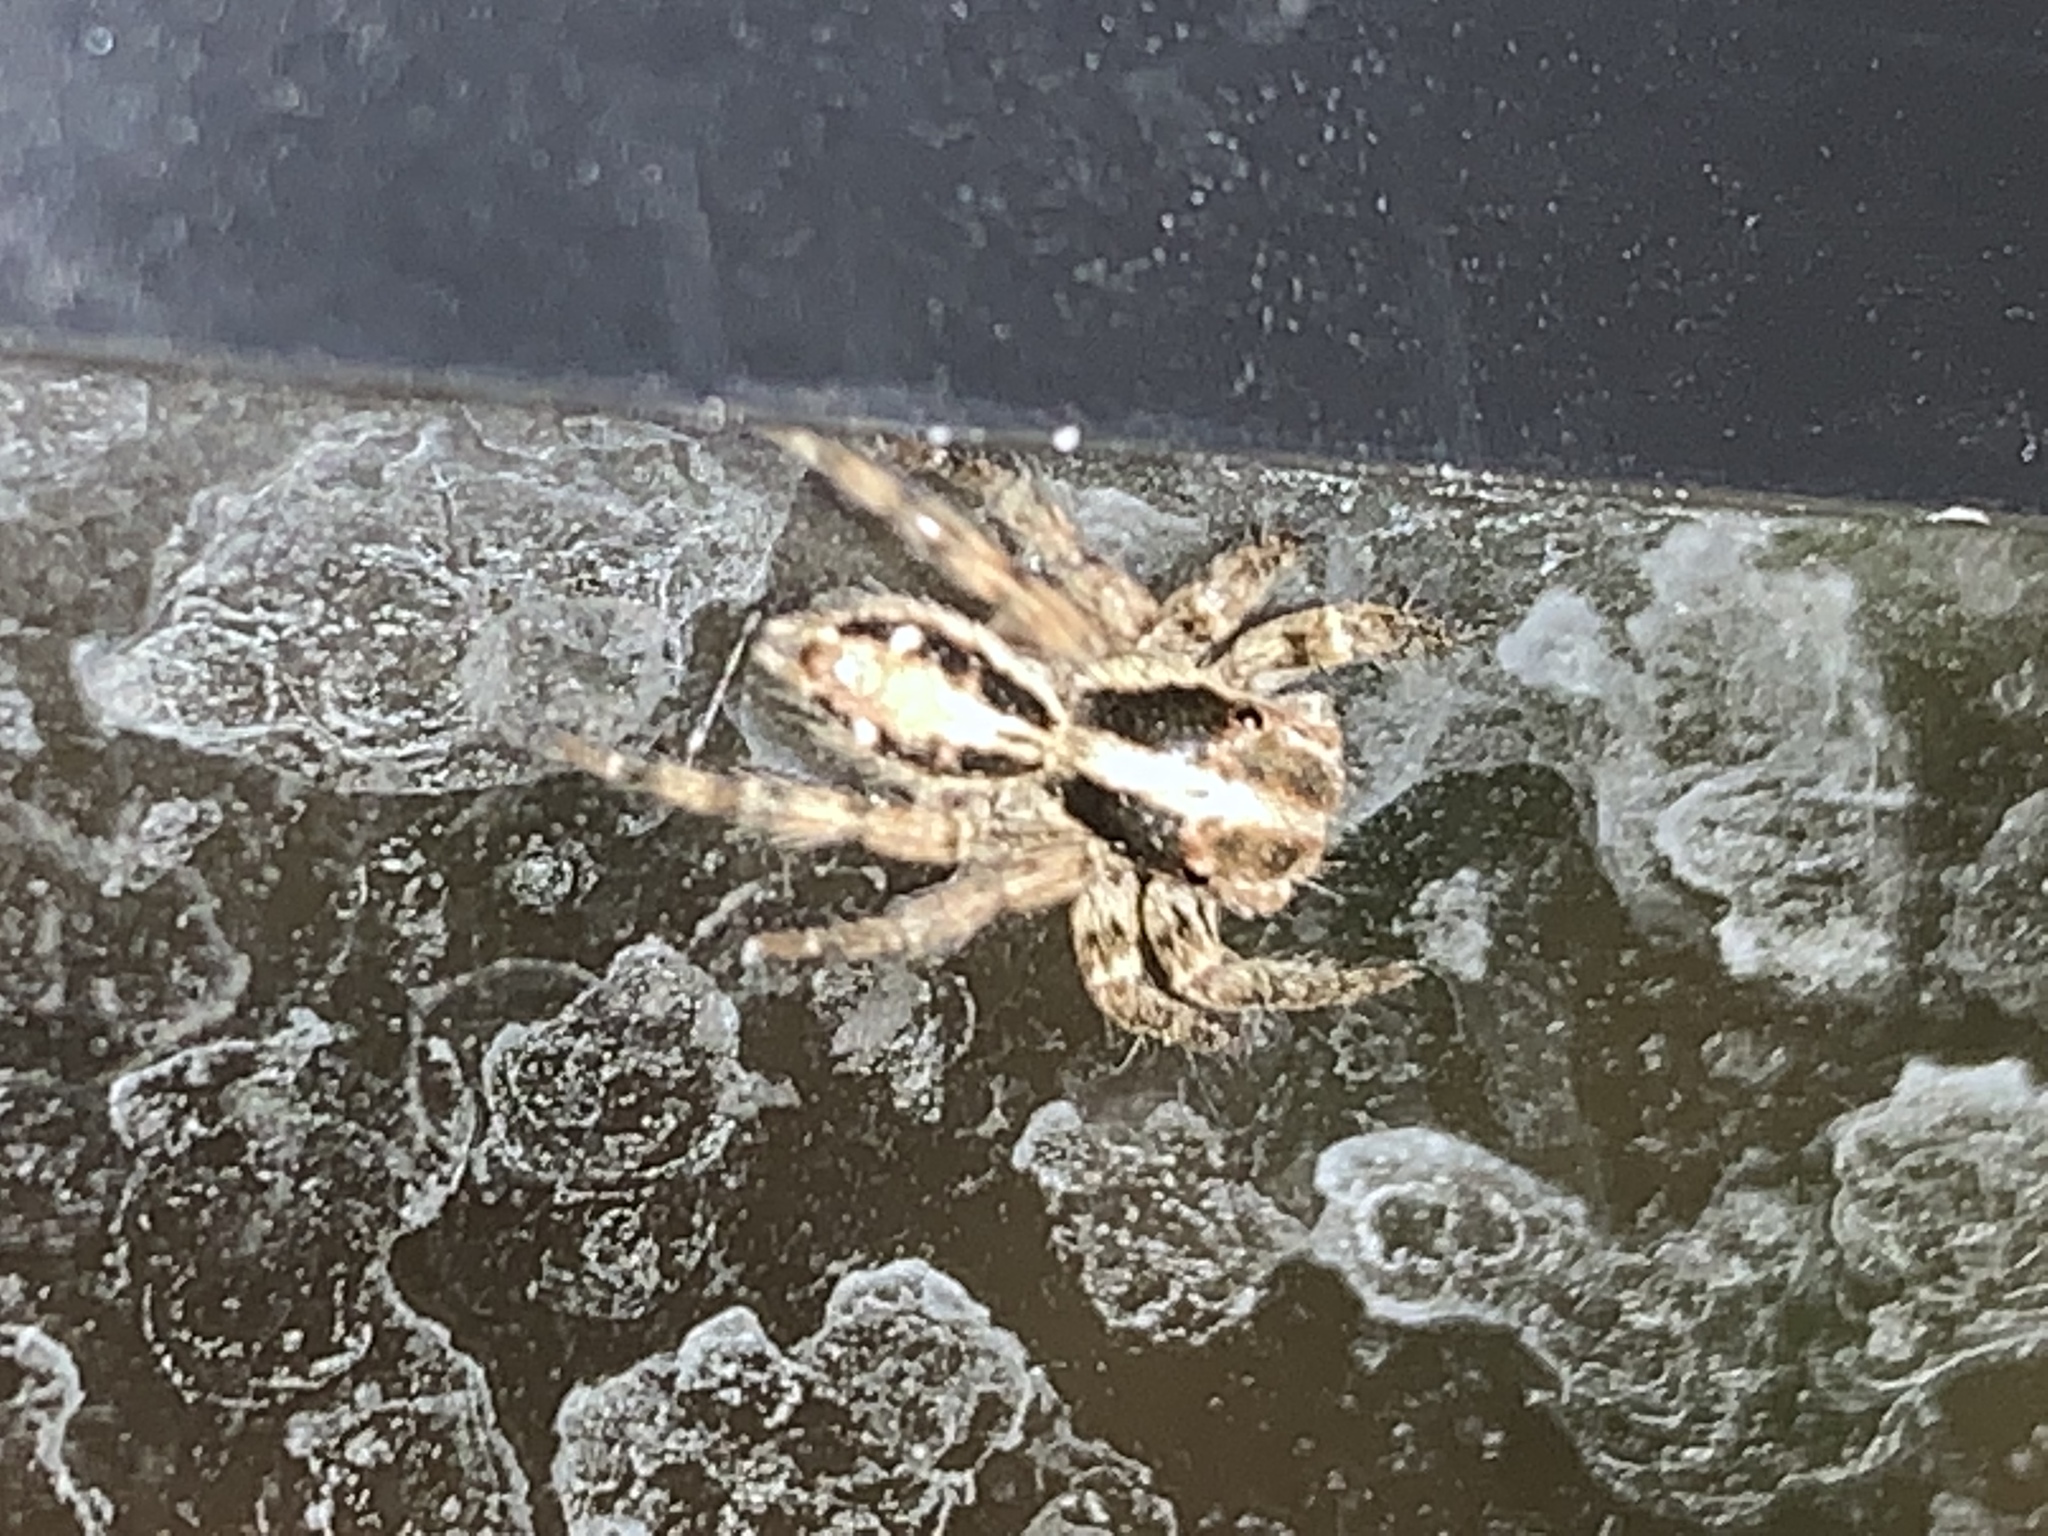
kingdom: Animalia
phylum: Arthropoda
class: Arachnida
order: Araneae
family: Salticidae
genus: Plexippus
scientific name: Plexippus paykulli
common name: Pantropical jumper
